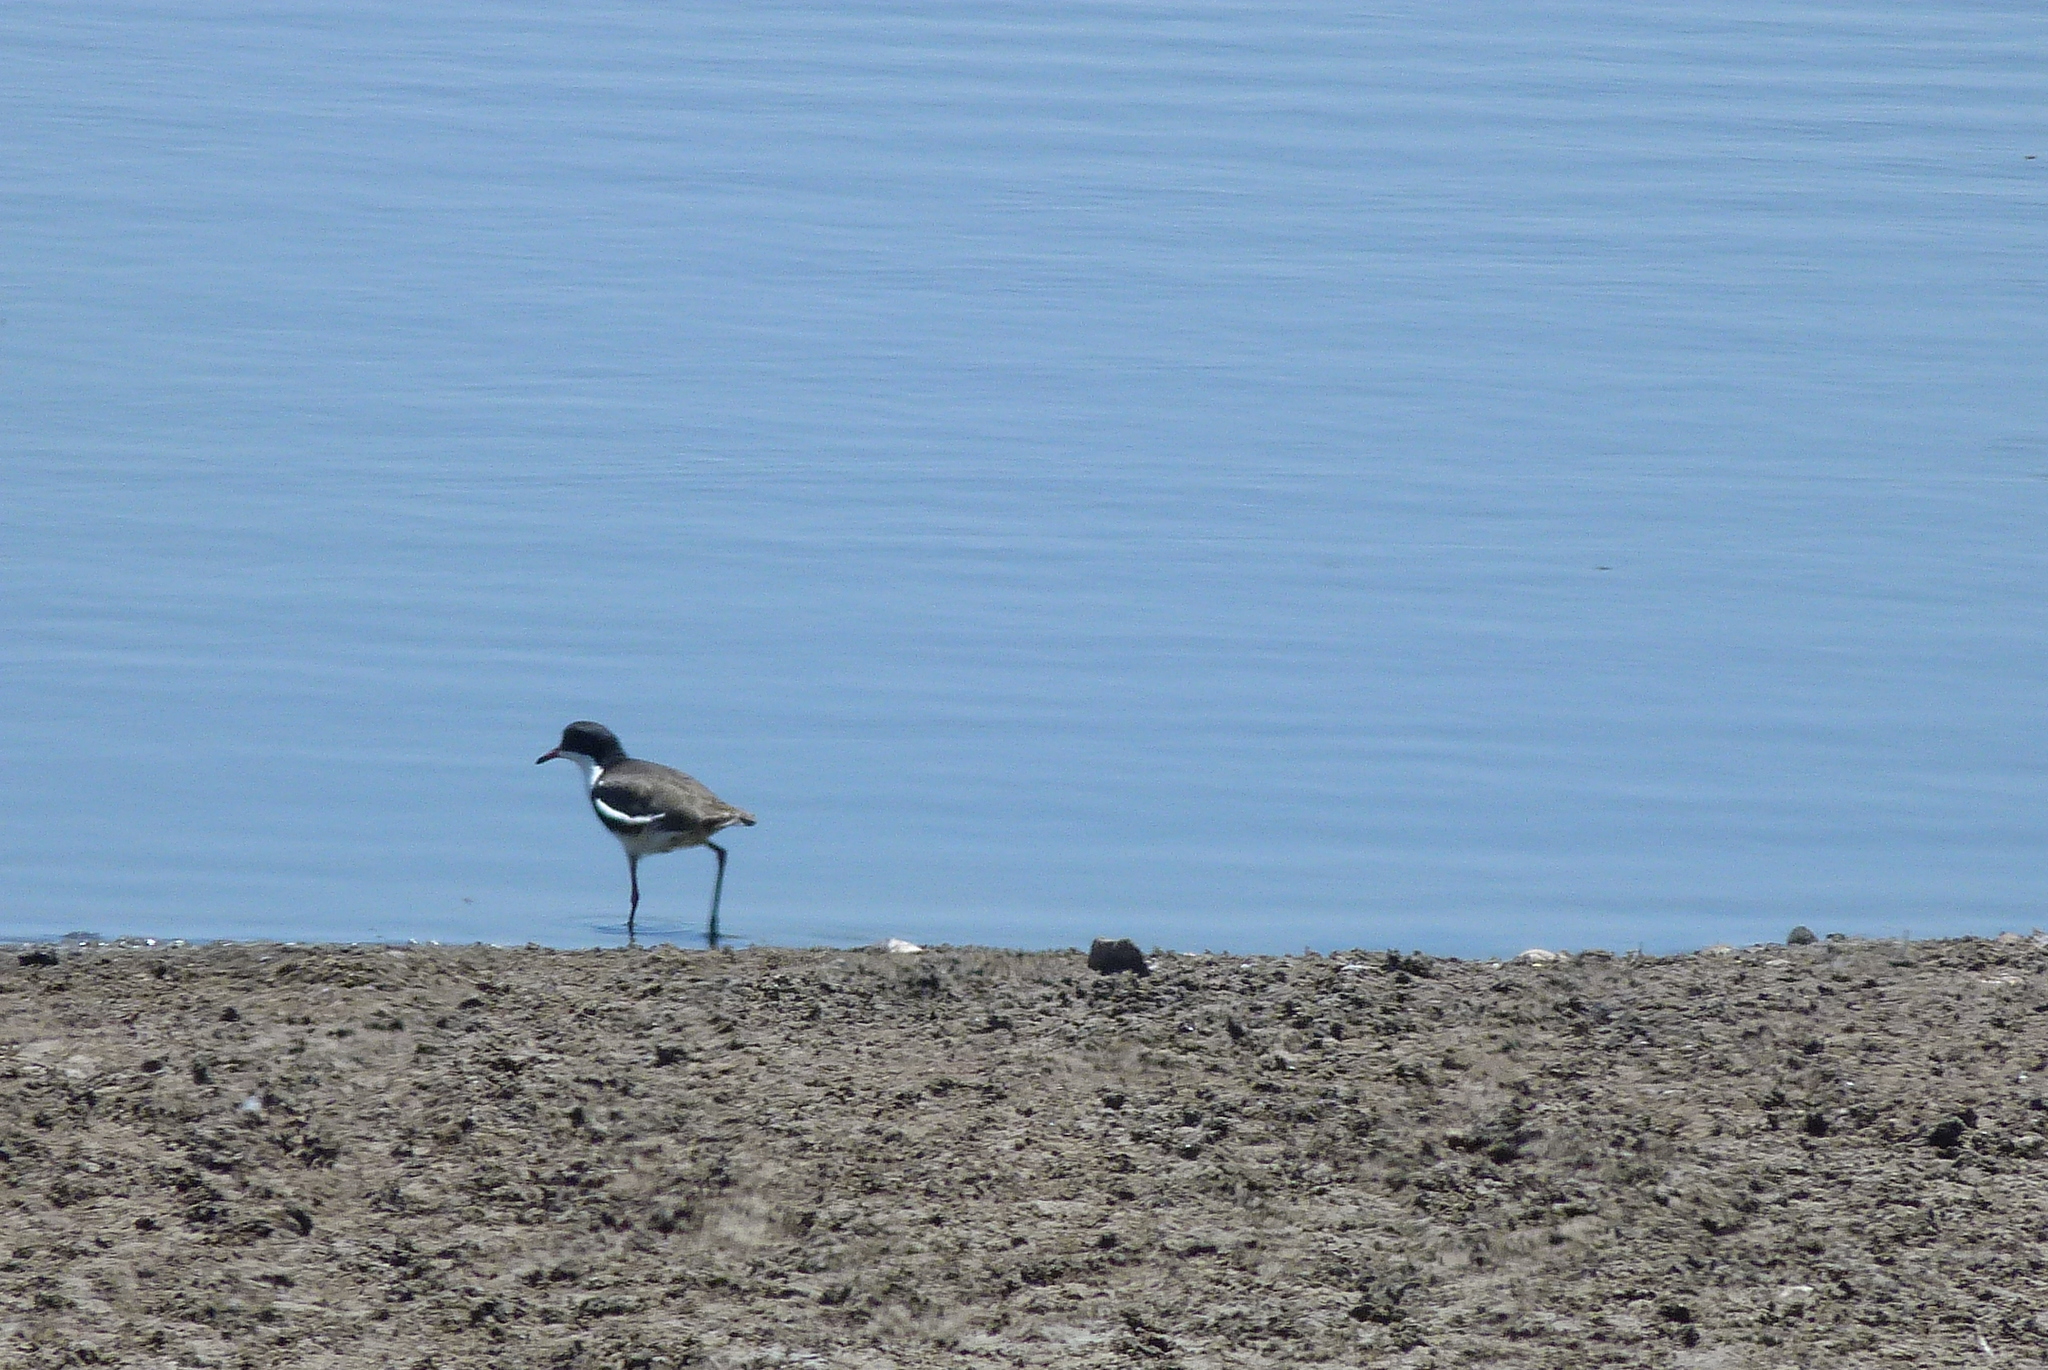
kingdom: Animalia
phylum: Chordata
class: Aves
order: Charadriiformes
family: Charadriidae
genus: Erythrogonys
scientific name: Erythrogonys cinctus
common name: Red-kneed dotterel
